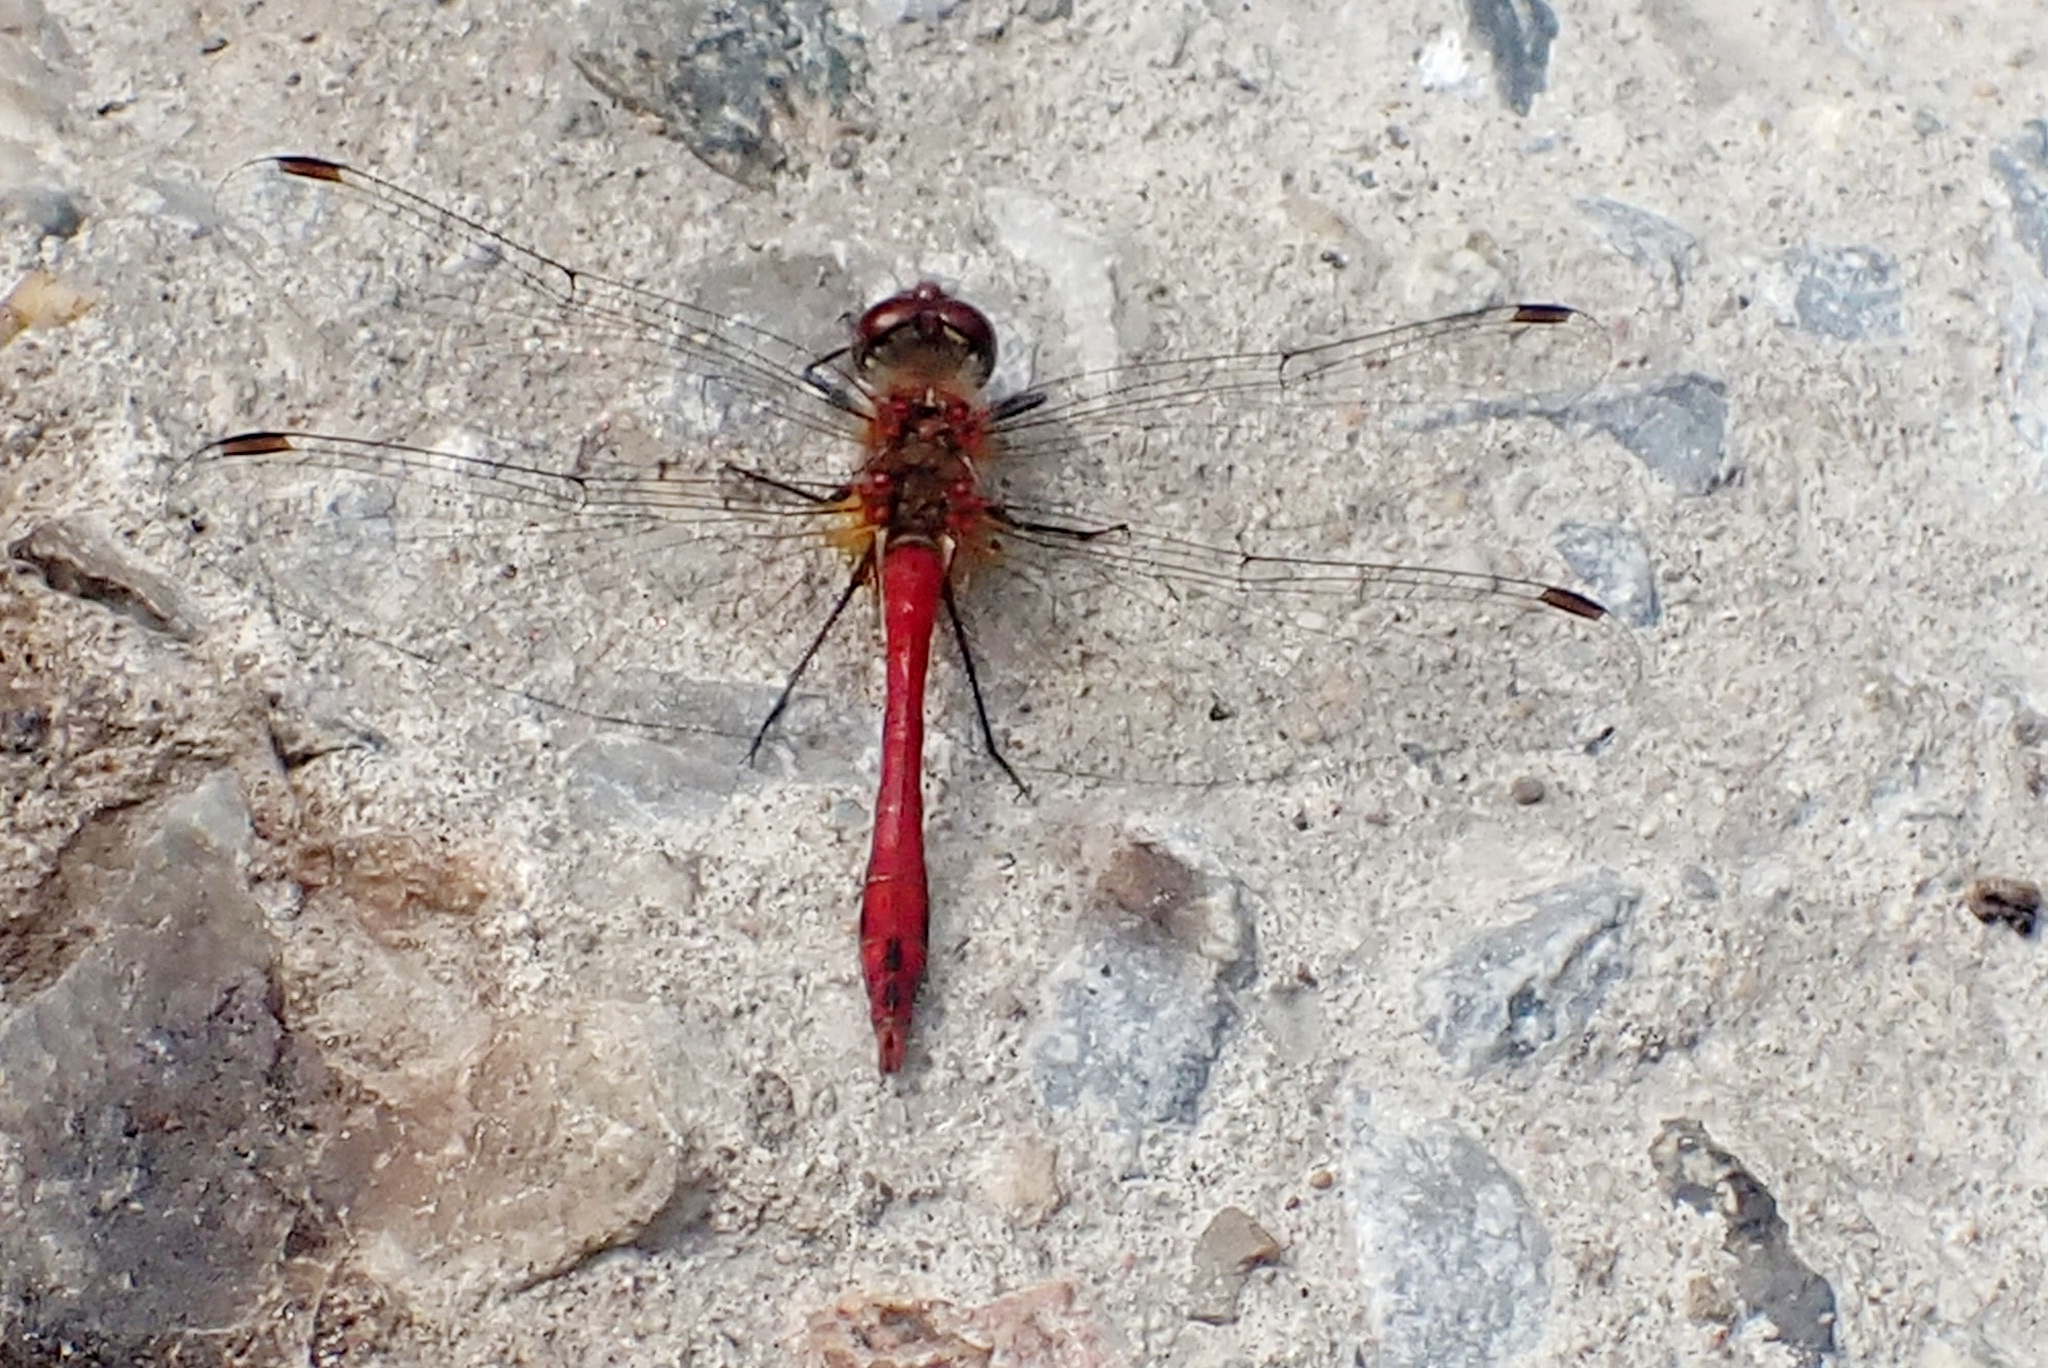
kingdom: Animalia
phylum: Arthropoda
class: Insecta
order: Odonata
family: Libellulidae
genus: Sympetrum
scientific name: Sympetrum sanguineum
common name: Ruddy darter
